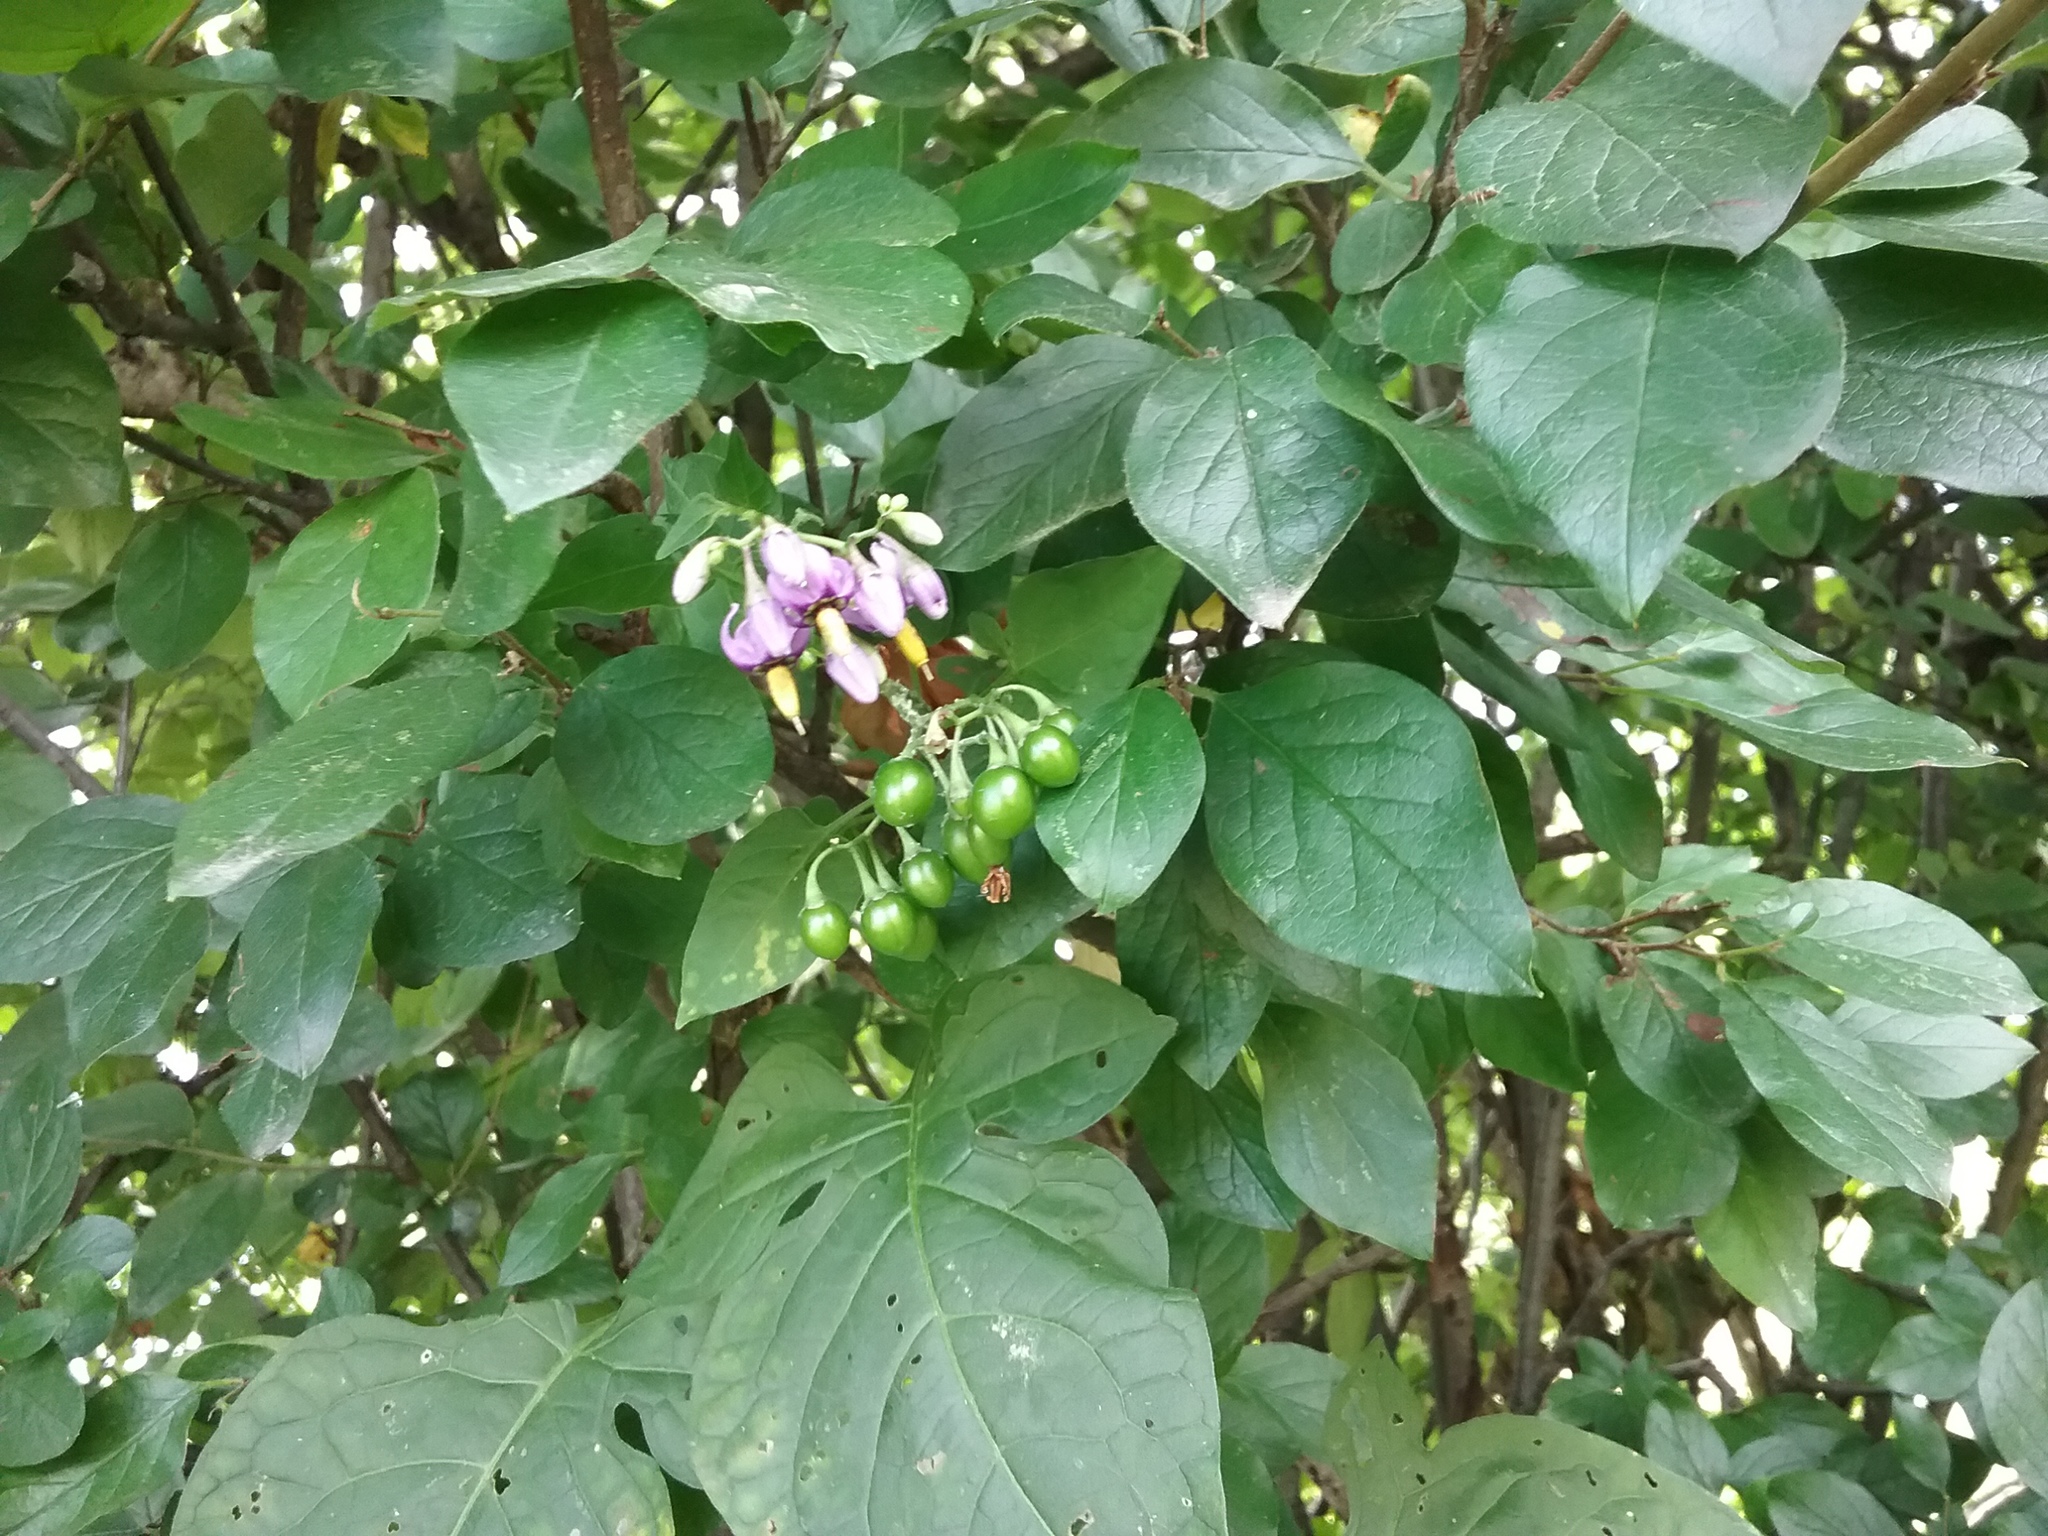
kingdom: Plantae
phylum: Tracheophyta
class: Magnoliopsida
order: Solanales
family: Solanaceae
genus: Solanum
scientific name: Solanum dulcamara
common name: Climbing nightshade
